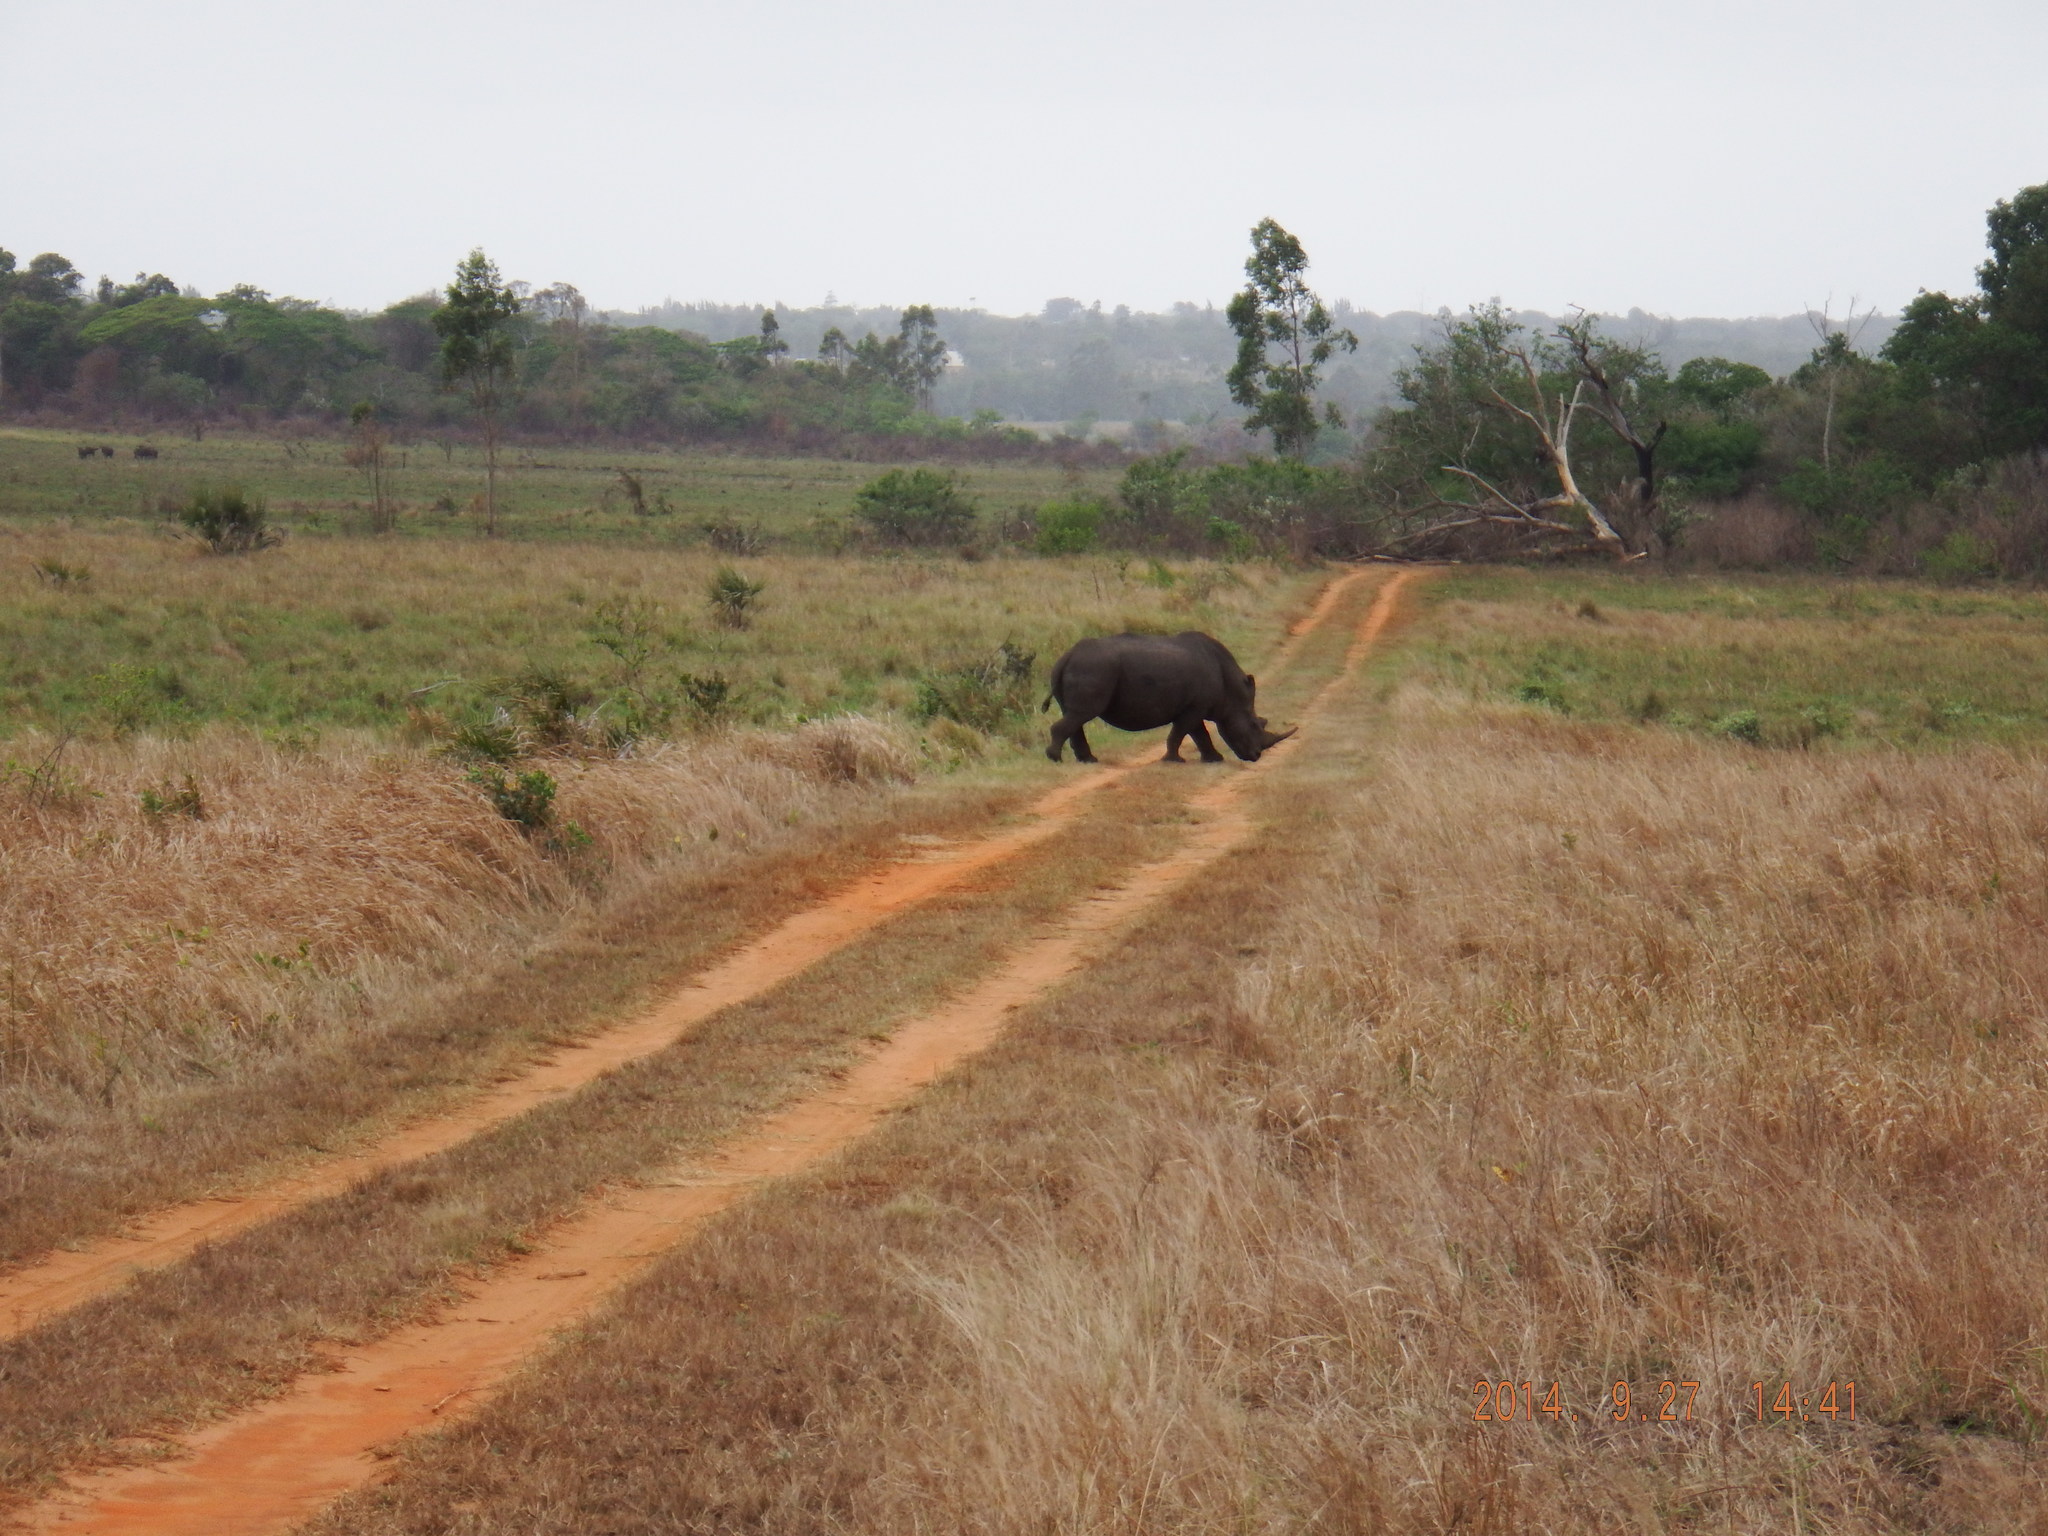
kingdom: Animalia
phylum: Chordata
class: Mammalia
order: Perissodactyla
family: Rhinocerotidae
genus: Ceratotherium
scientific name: Ceratotherium simum
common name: White rhinoceros
